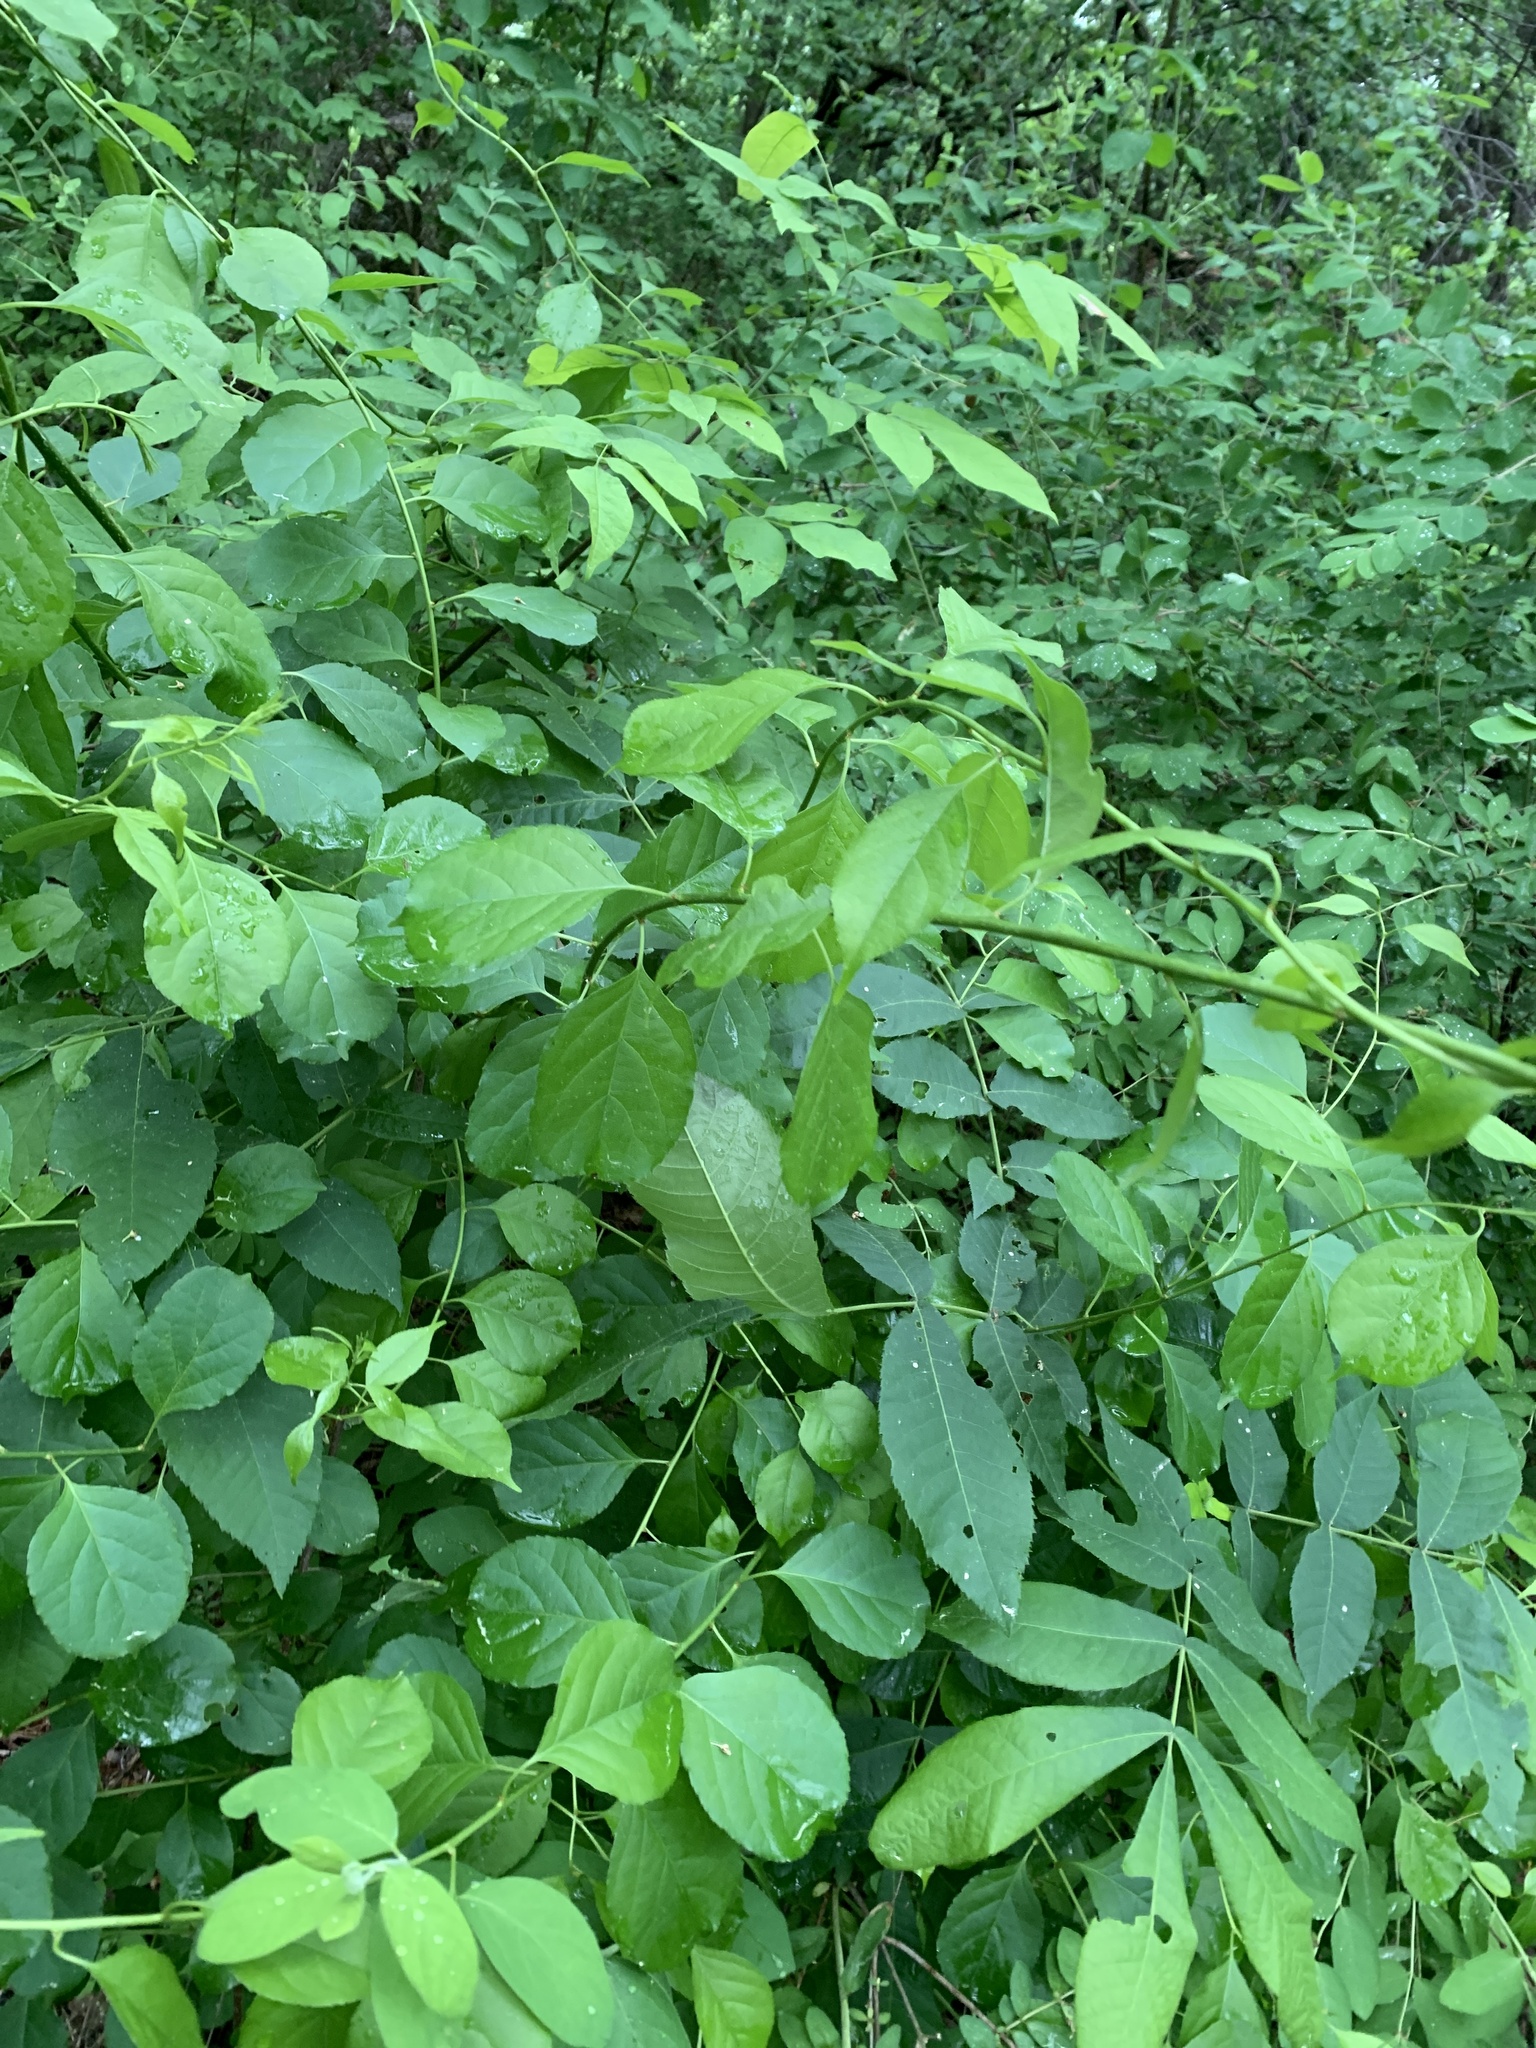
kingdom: Plantae
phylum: Tracheophyta
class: Magnoliopsida
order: Celastrales
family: Celastraceae
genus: Celastrus
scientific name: Celastrus orbiculatus
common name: Oriental bittersweet
